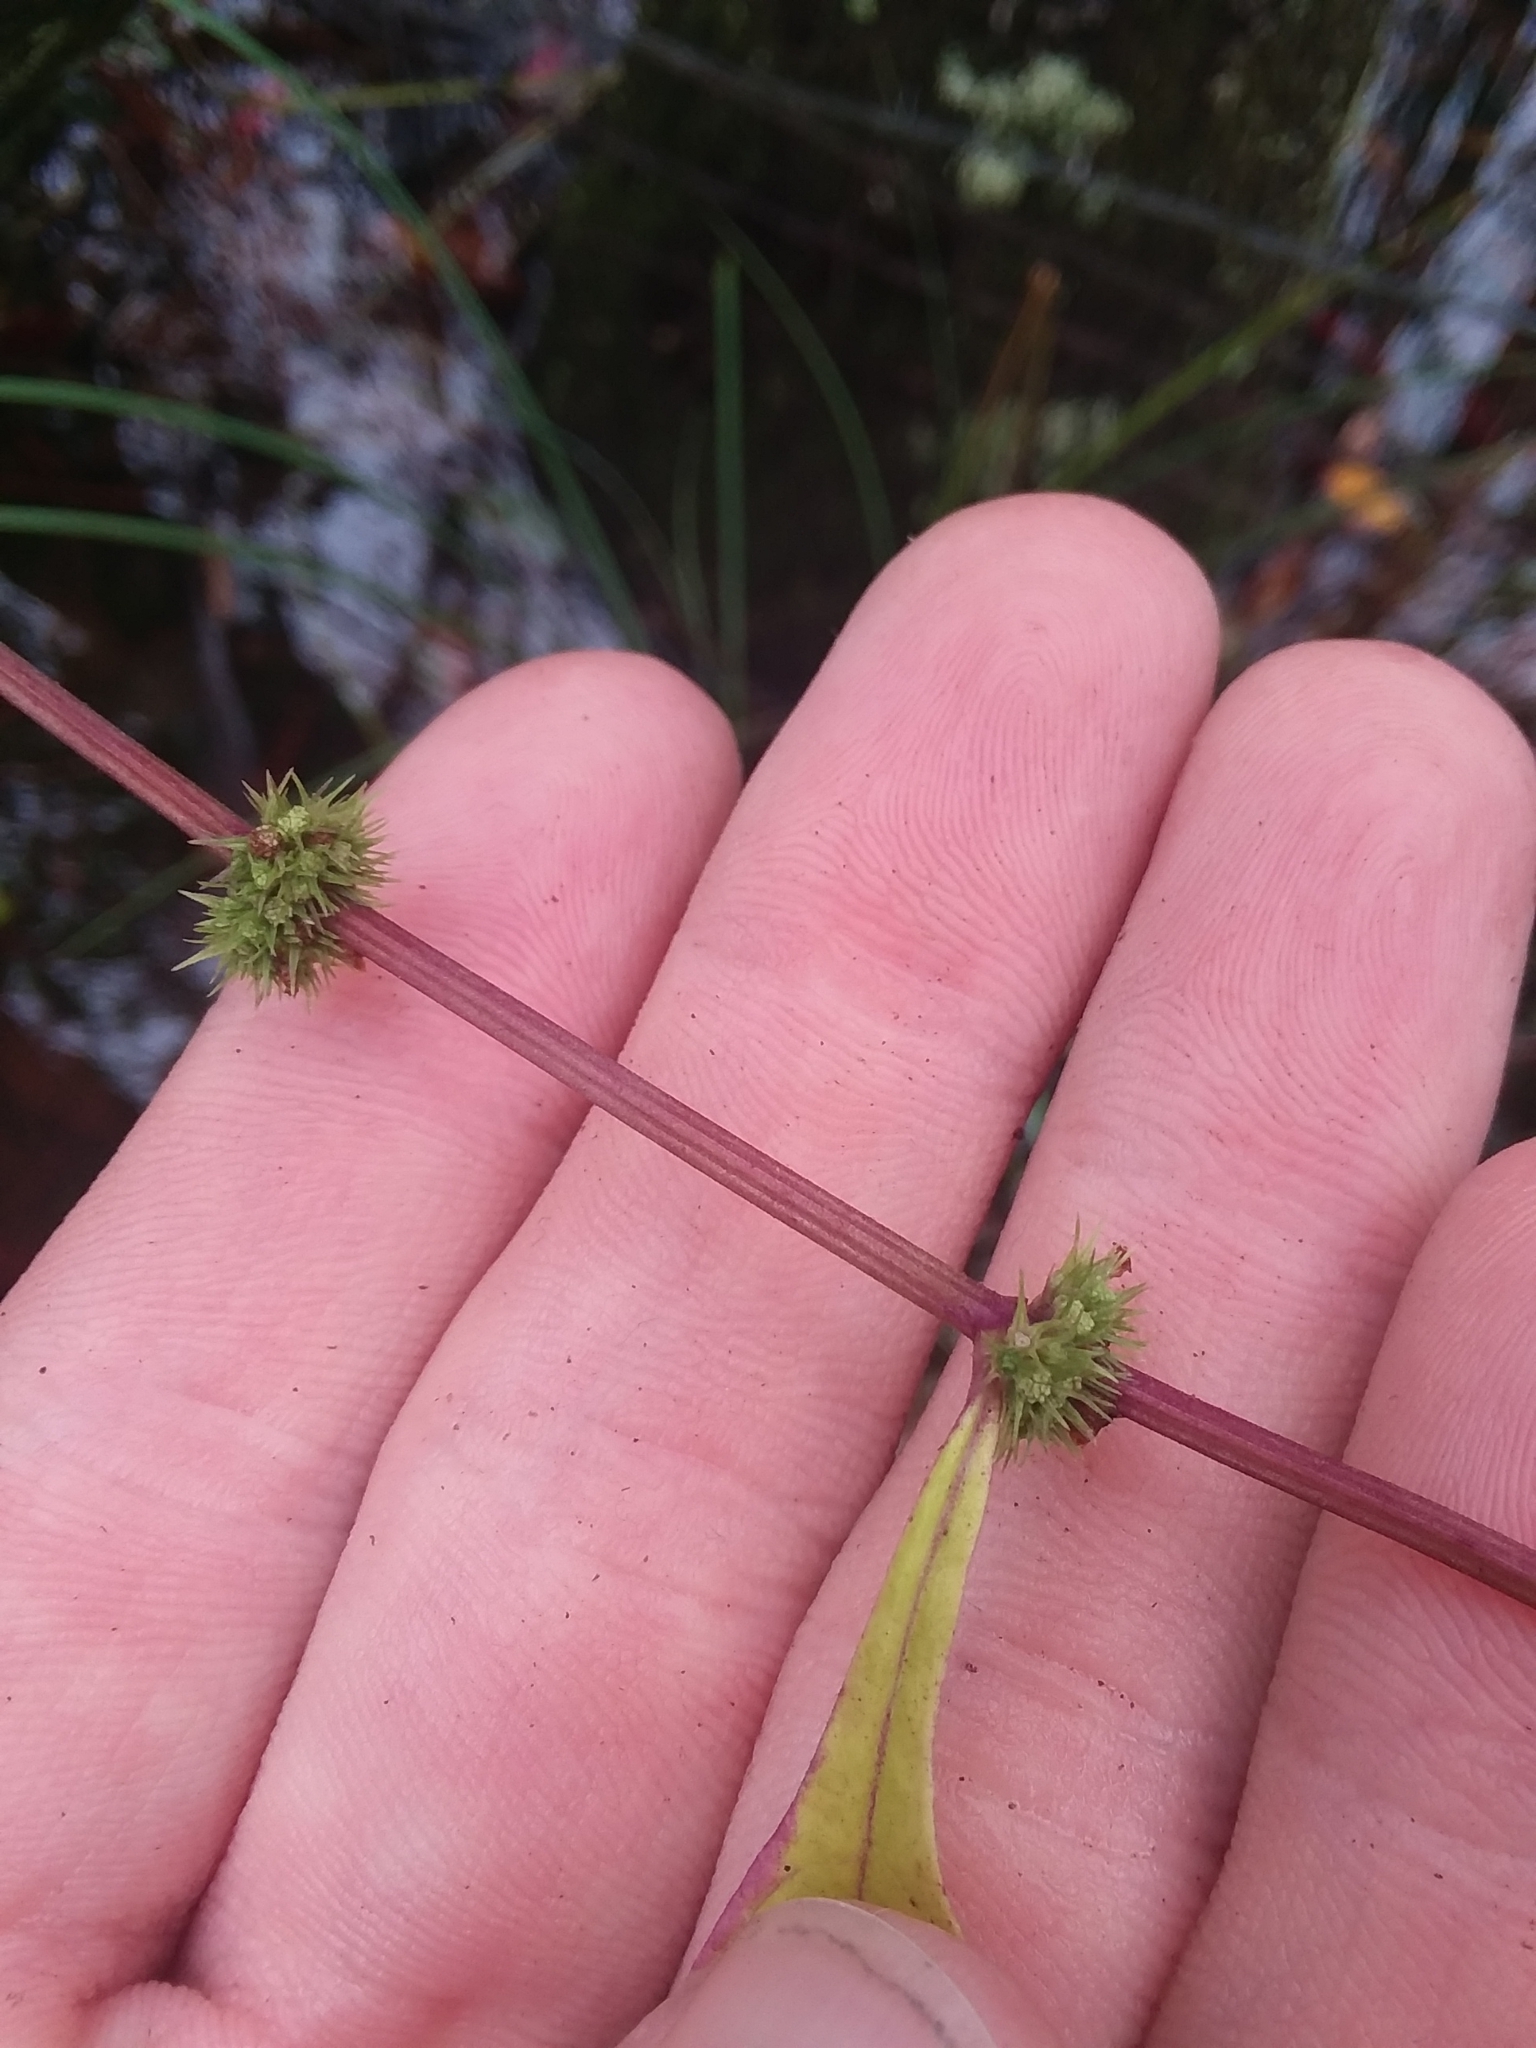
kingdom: Plantae
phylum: Tracheophyta
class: Magnoliopsida
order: Lamiales
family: Lamiaceae
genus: Lycopus
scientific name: Lycopus rubellus
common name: Stalked bugleweed
